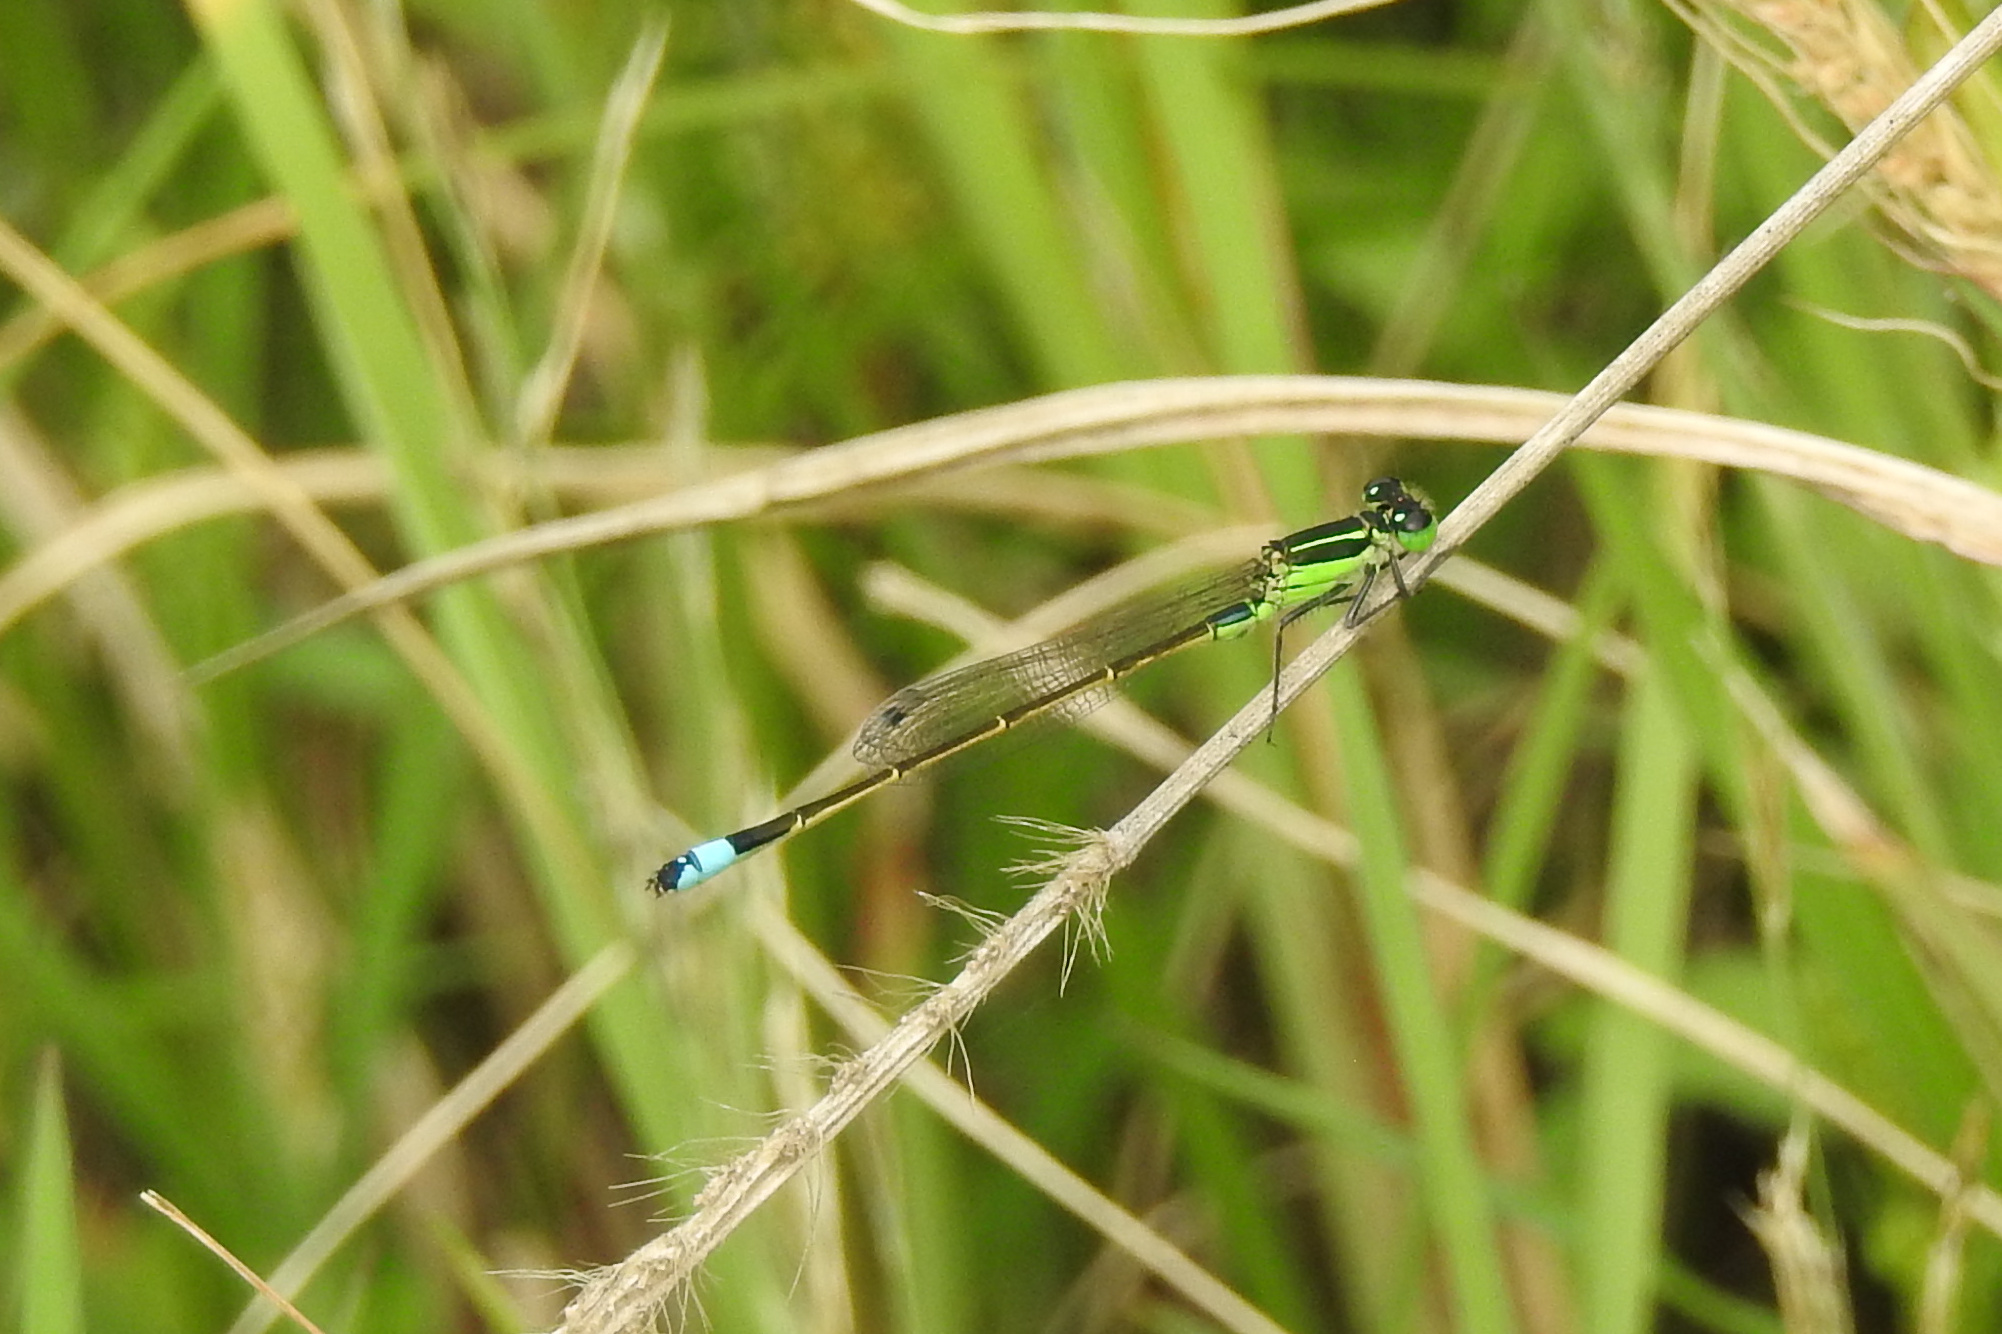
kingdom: Animalia
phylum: Arthropoda
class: Insecta
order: Odonata
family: Coenagrionidae
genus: Ischnura
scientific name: Ischnura ramburii
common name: Rambur's forktail
